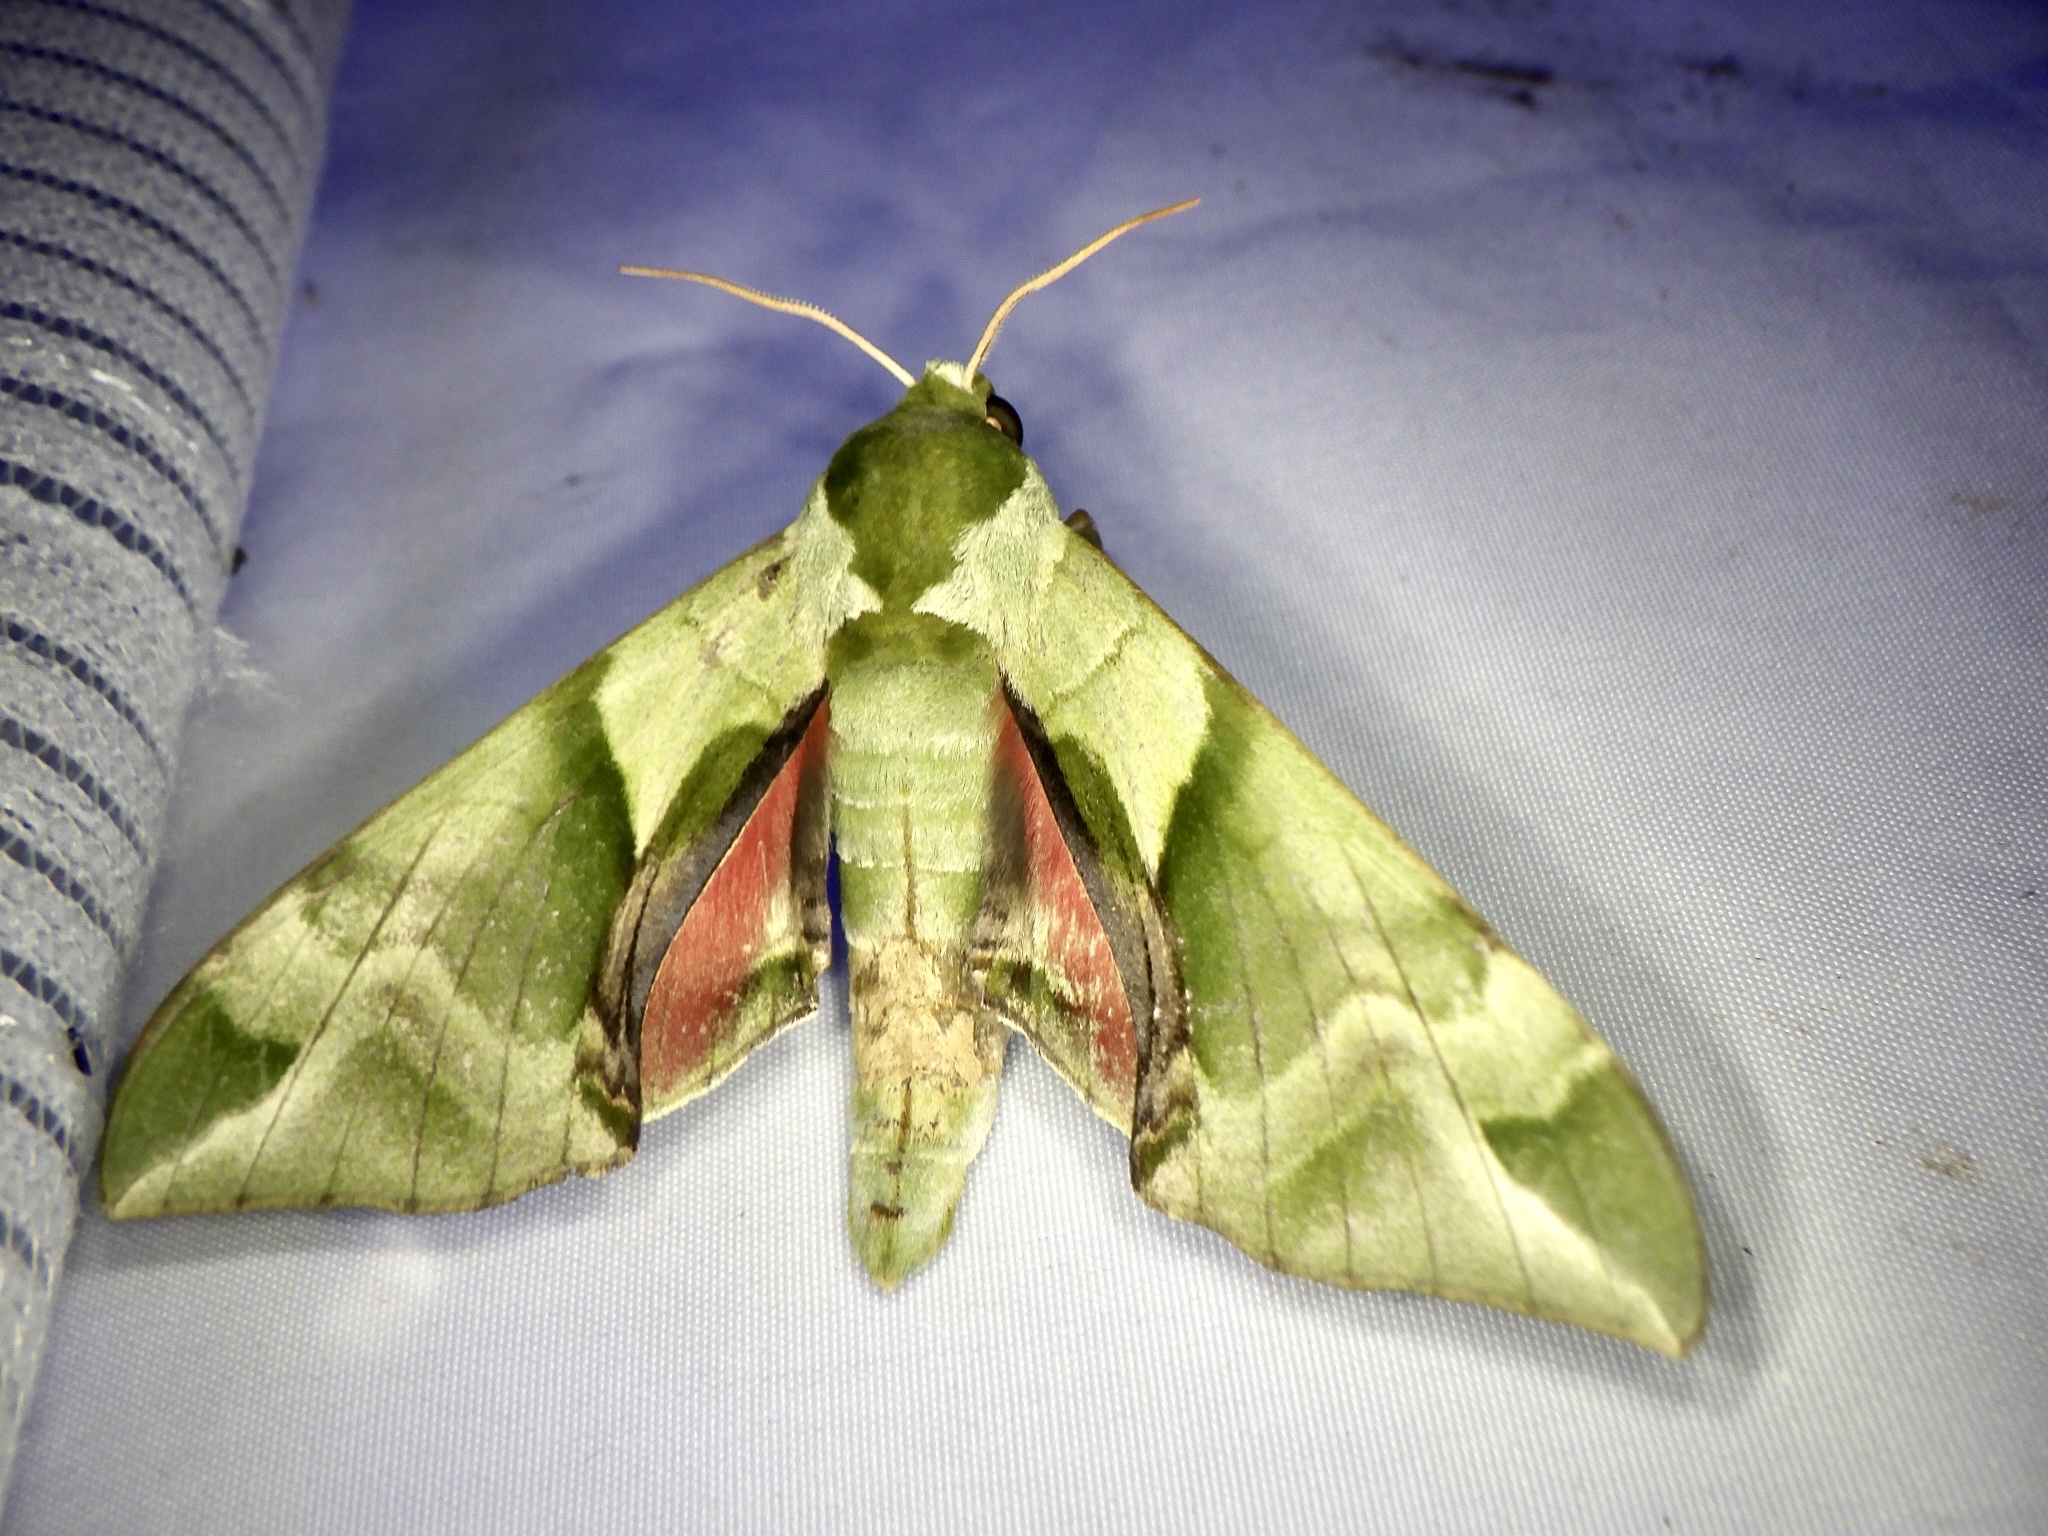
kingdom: Animalia
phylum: Arthropoda
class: Insecta
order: Lepidoptera
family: Sphingidae
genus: Callambulyx
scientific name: Callambulyx tatarinovii
